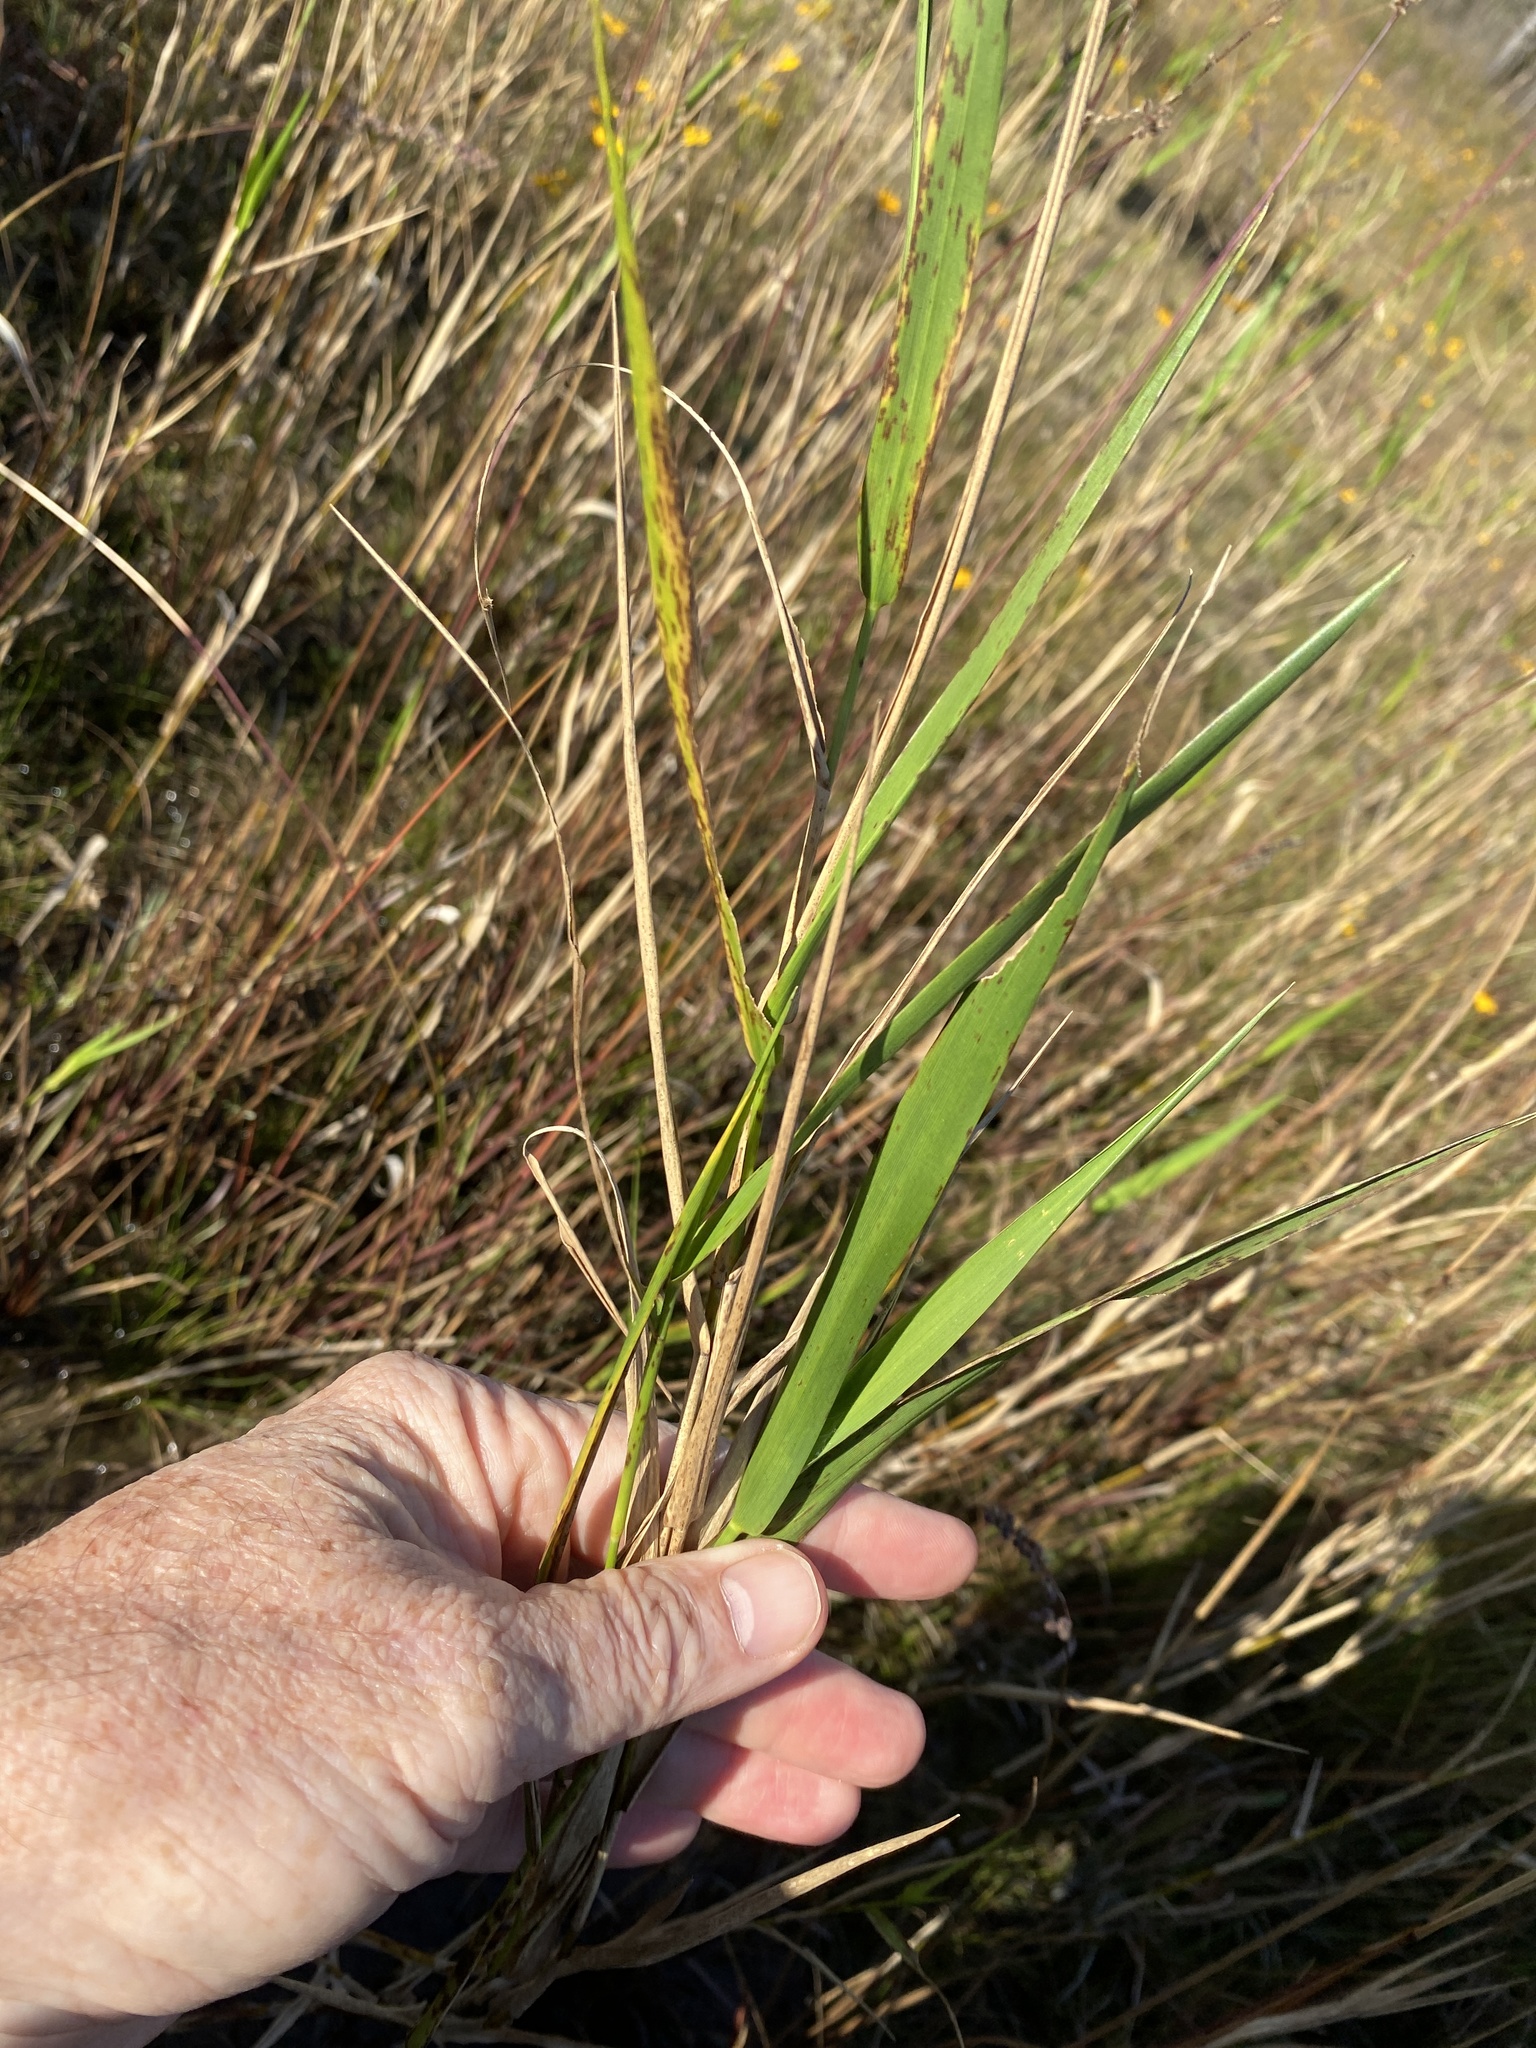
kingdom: Plantae
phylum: Tracheophyta
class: Liliopsida
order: Poales
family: Poaceae
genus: Panicum
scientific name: Panicum hemitomon
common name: Maidencane
